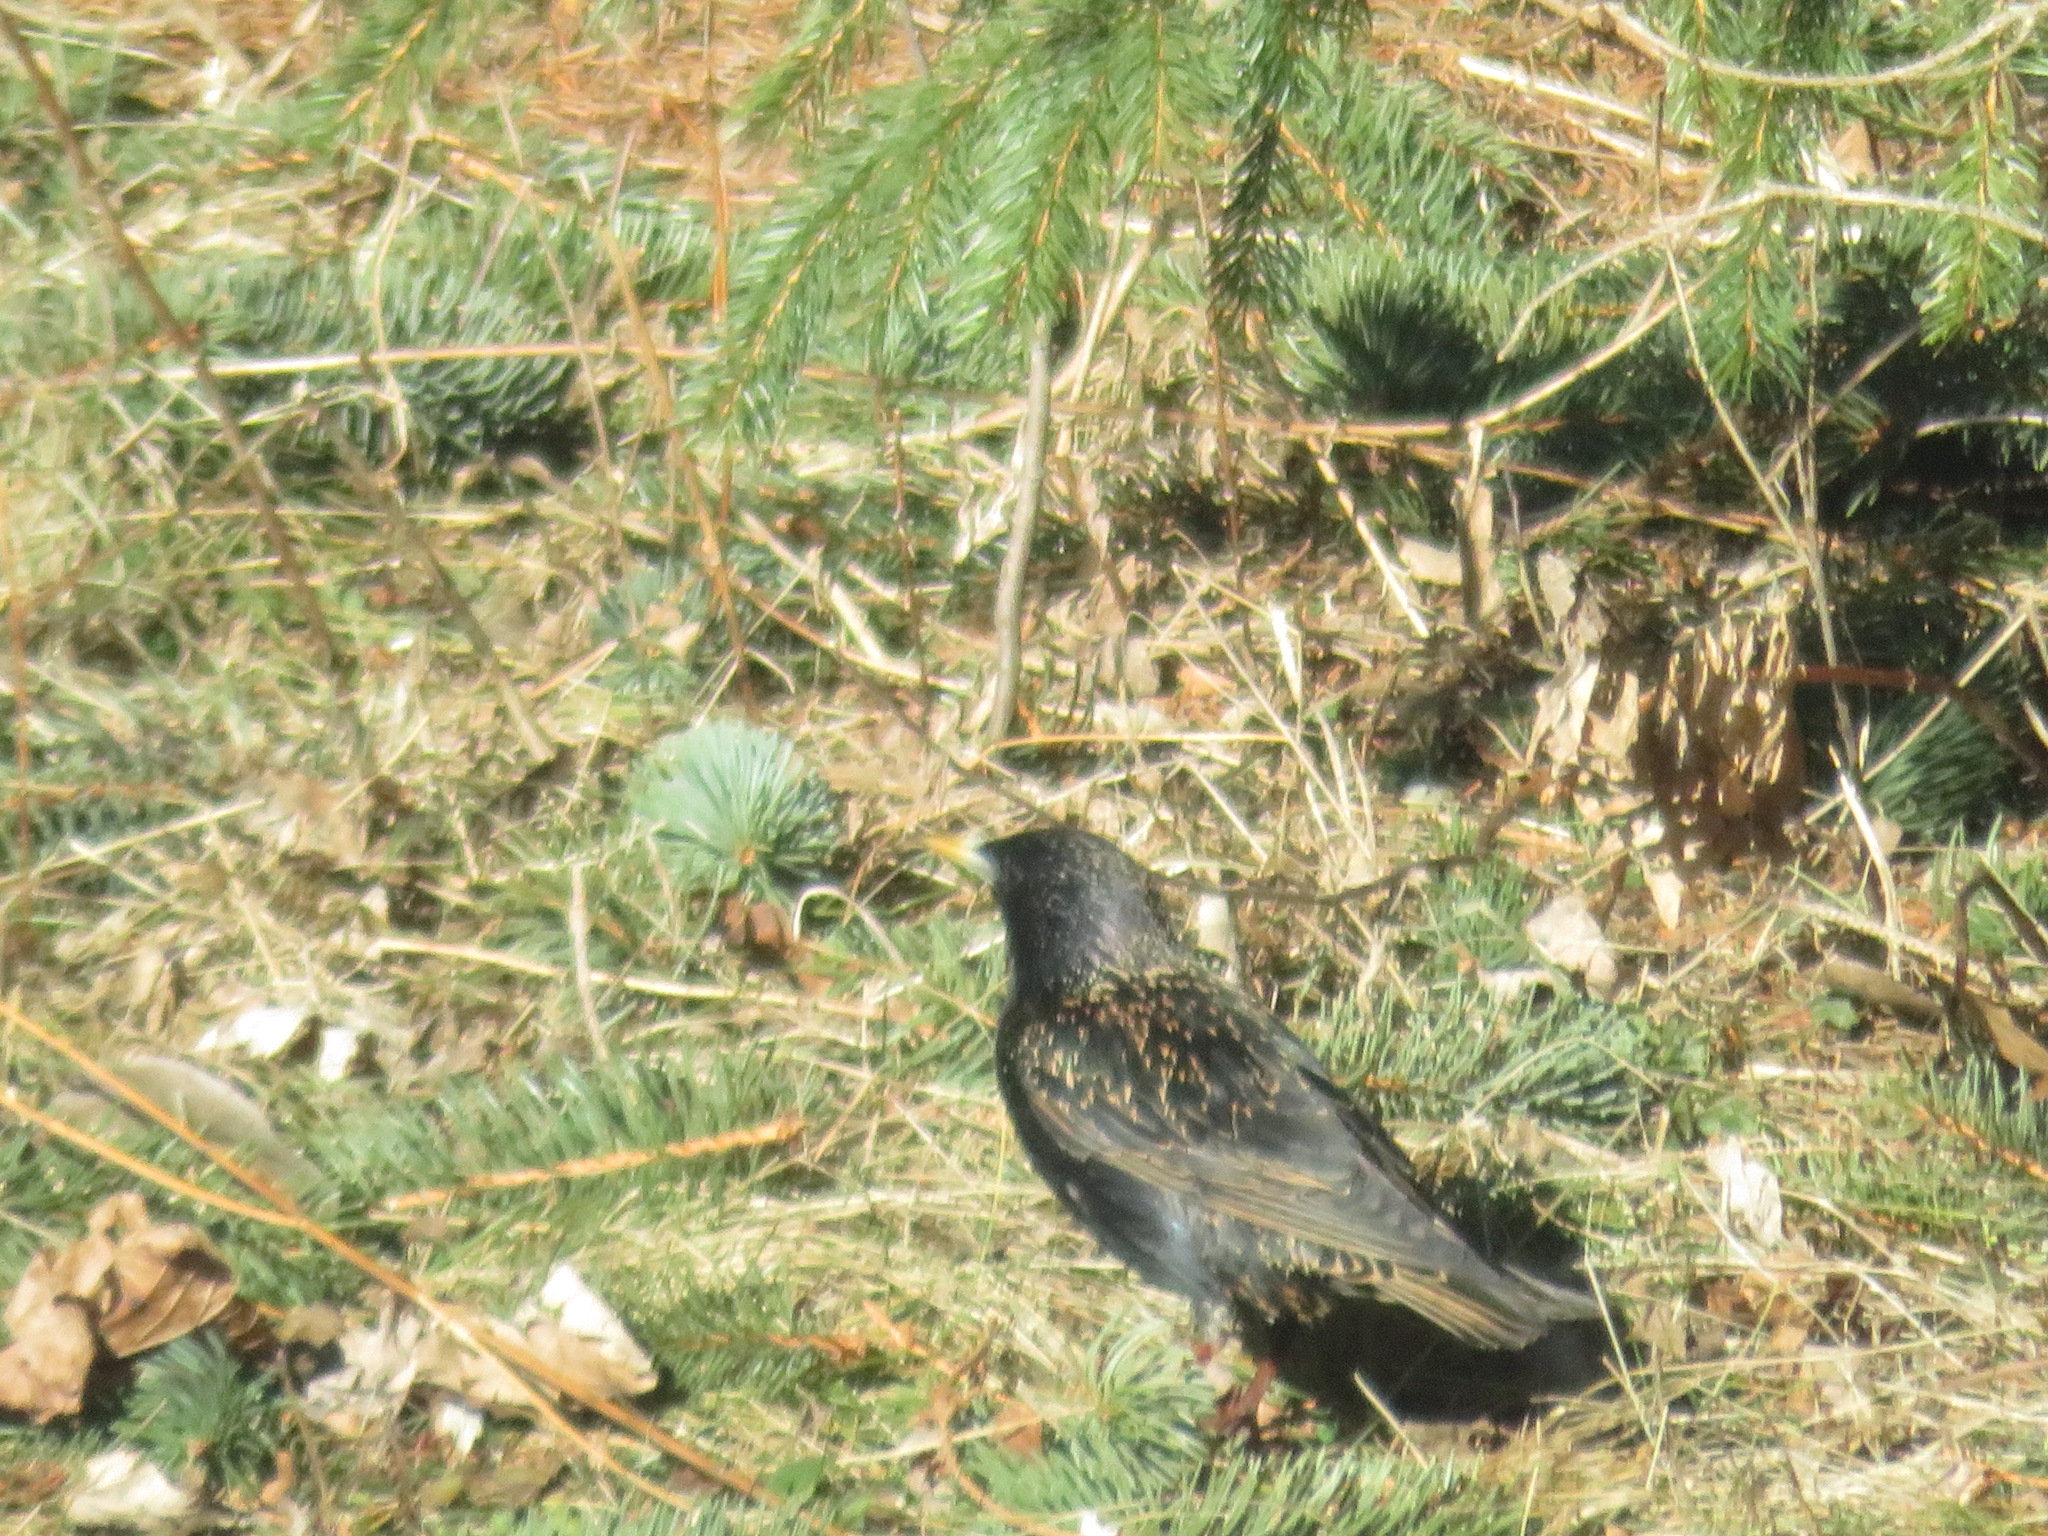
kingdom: Animalia
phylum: Chordata
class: Aves
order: Passeriformes
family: Sturnidae
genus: Sturnus
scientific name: Sturnus vulgaris
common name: Common starling
